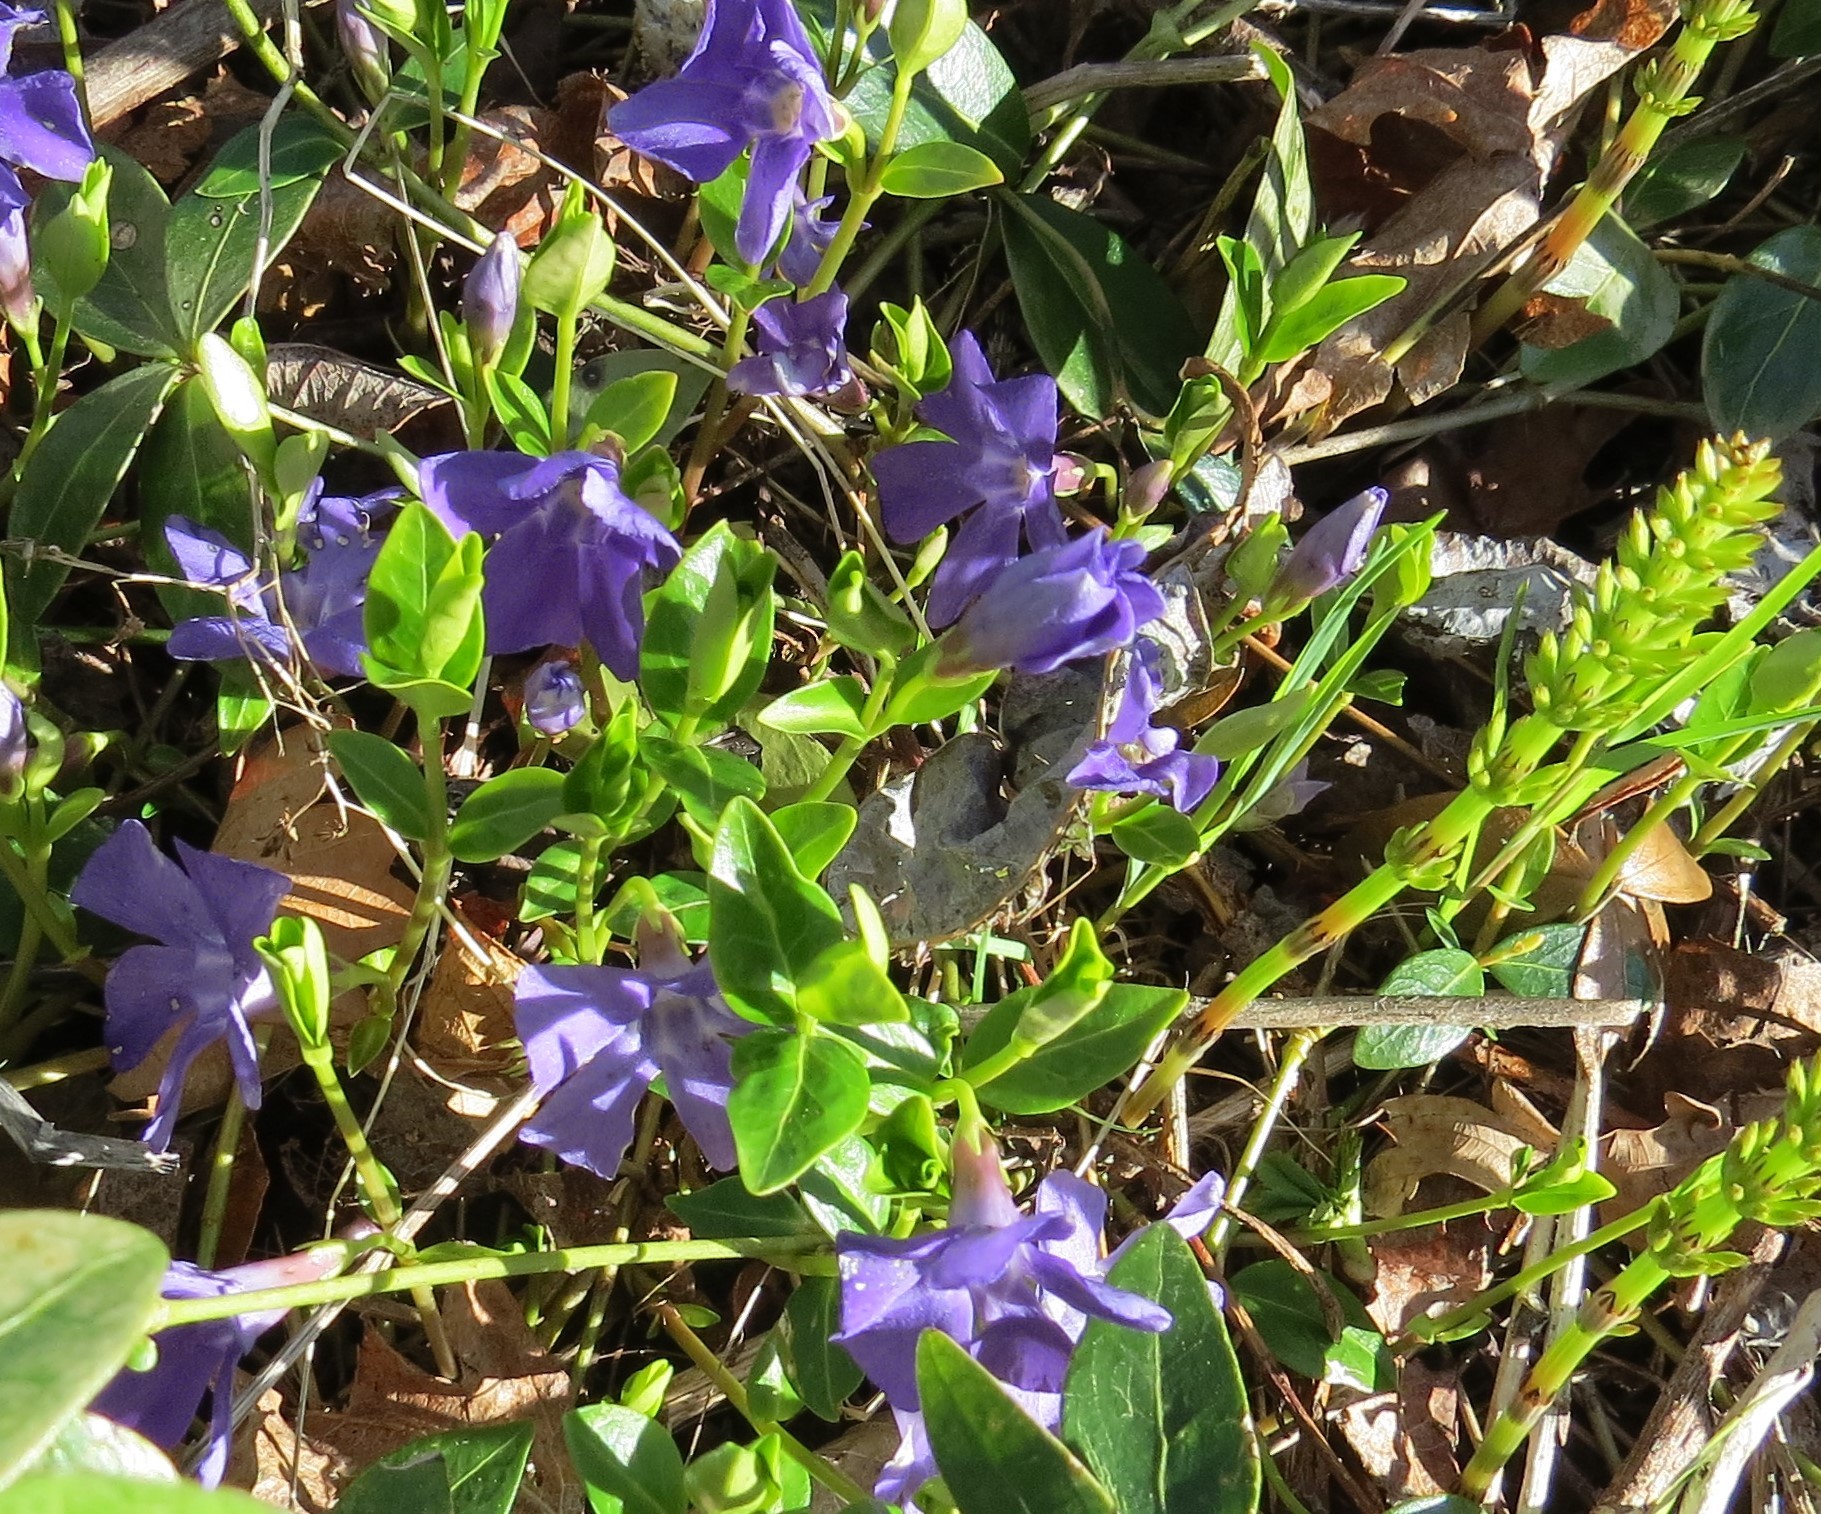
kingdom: Plantae
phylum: Tracheophyta
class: Magnoliopsida
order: Gentianales
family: Apocynaceae
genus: Vinca
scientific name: Vinca minor
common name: Lesser periwinkle
